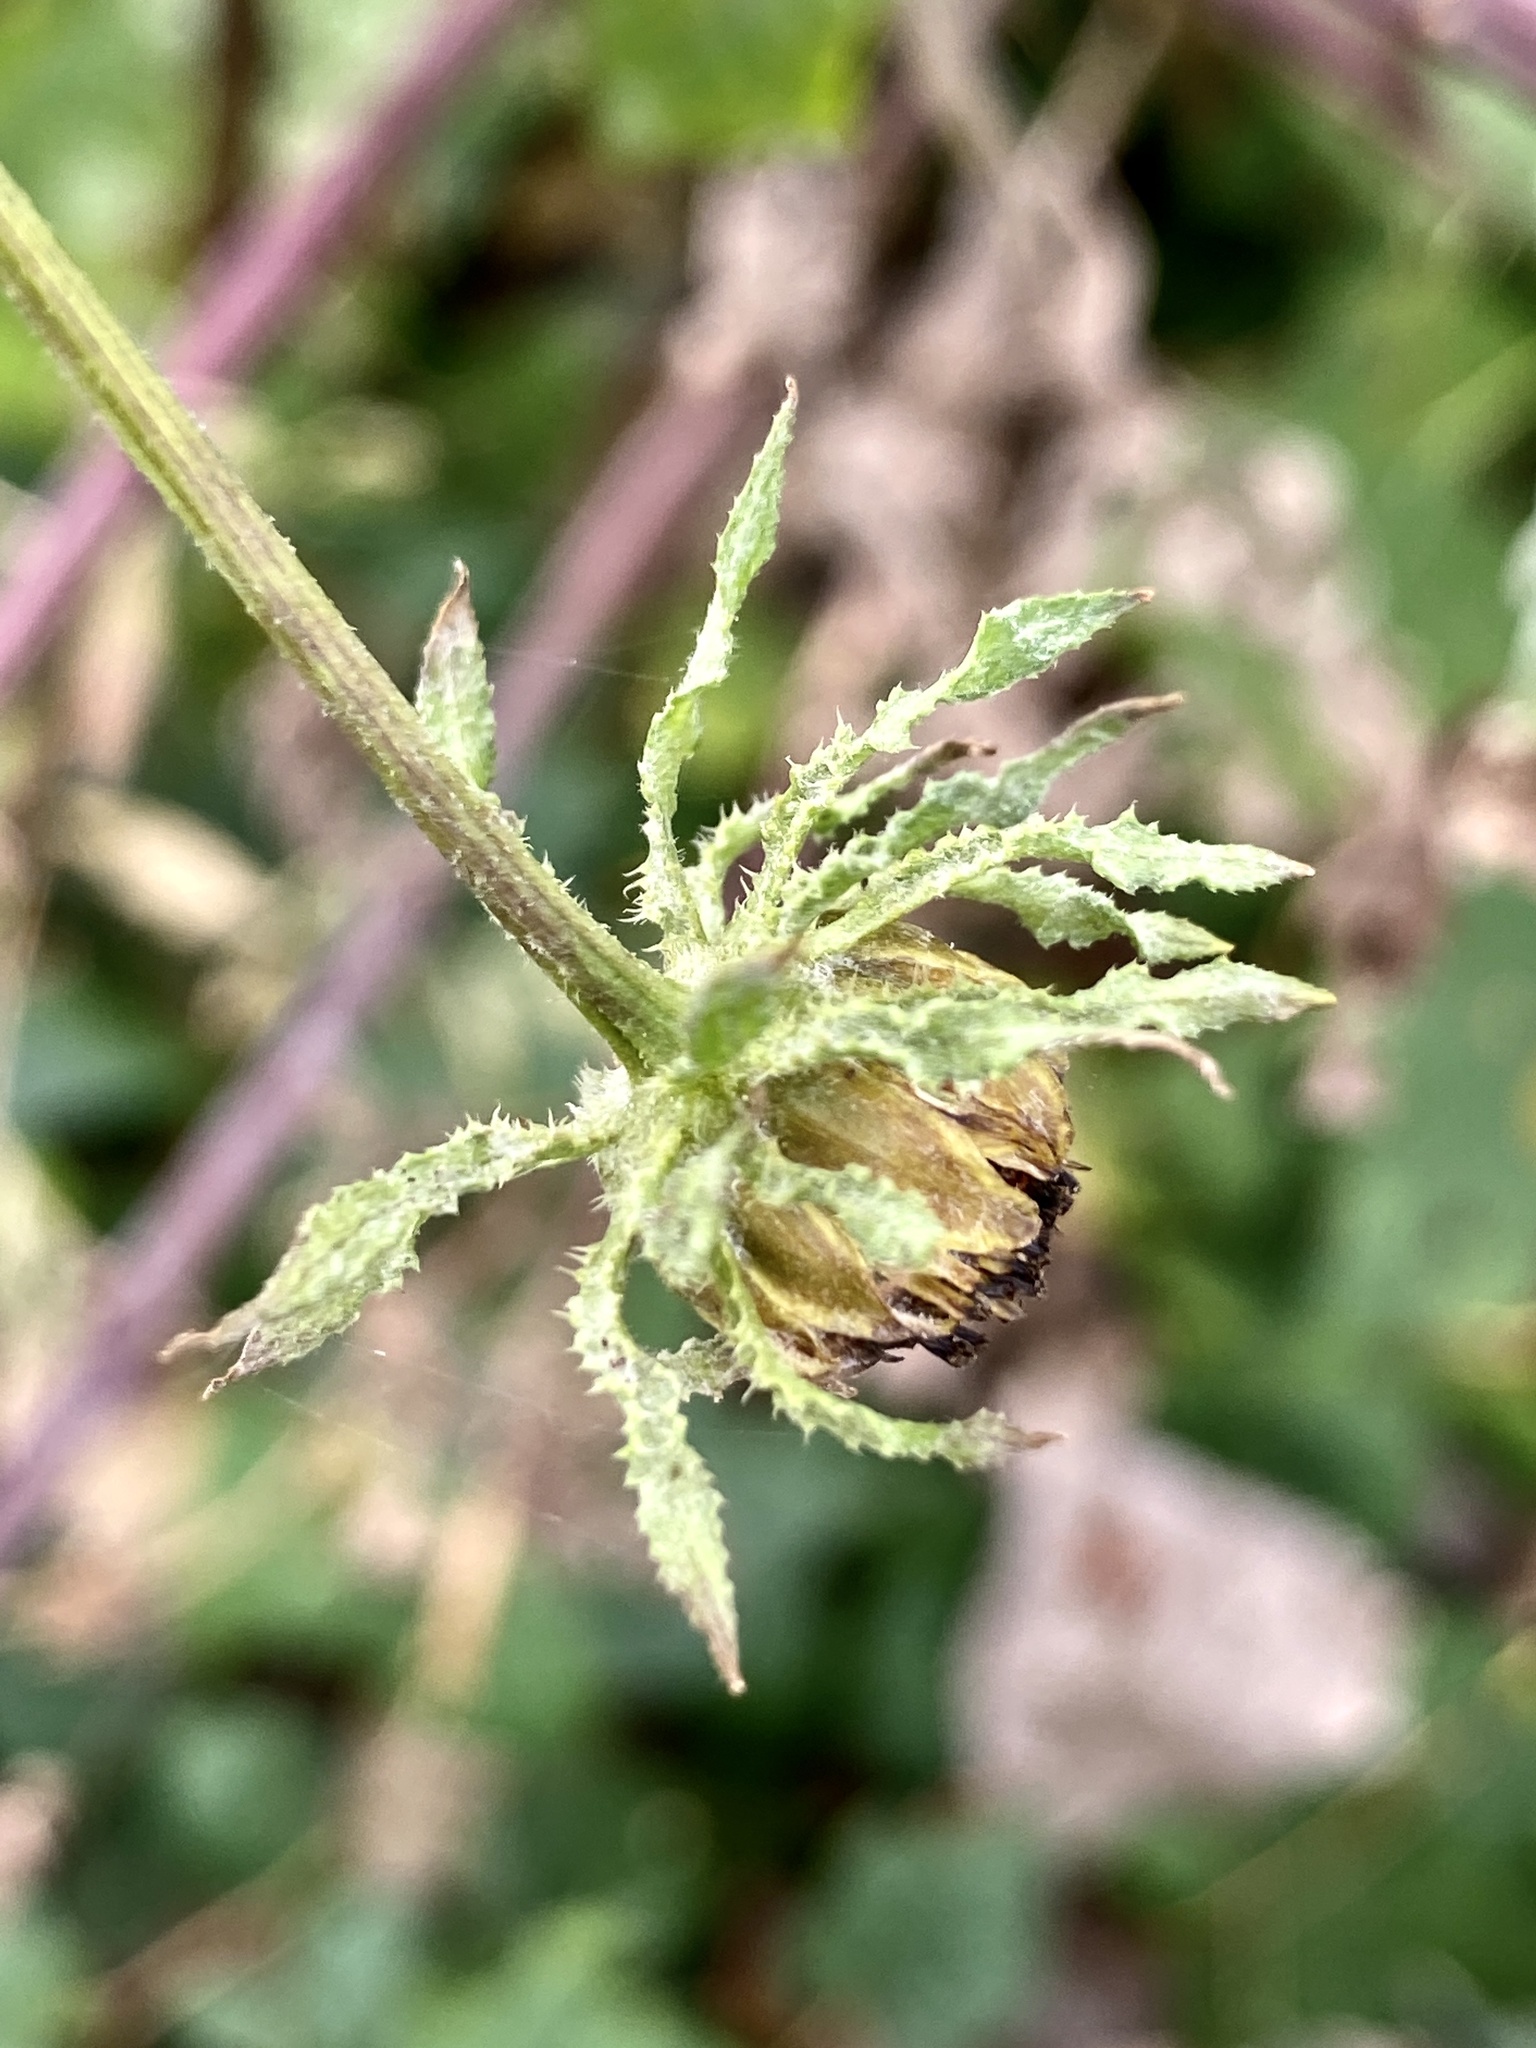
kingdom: Plantae
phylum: Tracheophyta
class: Magnoliopsida
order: Asterales
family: Asteraceae
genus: Bidens
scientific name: Bidens polylepis
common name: Awnless beggarticks
